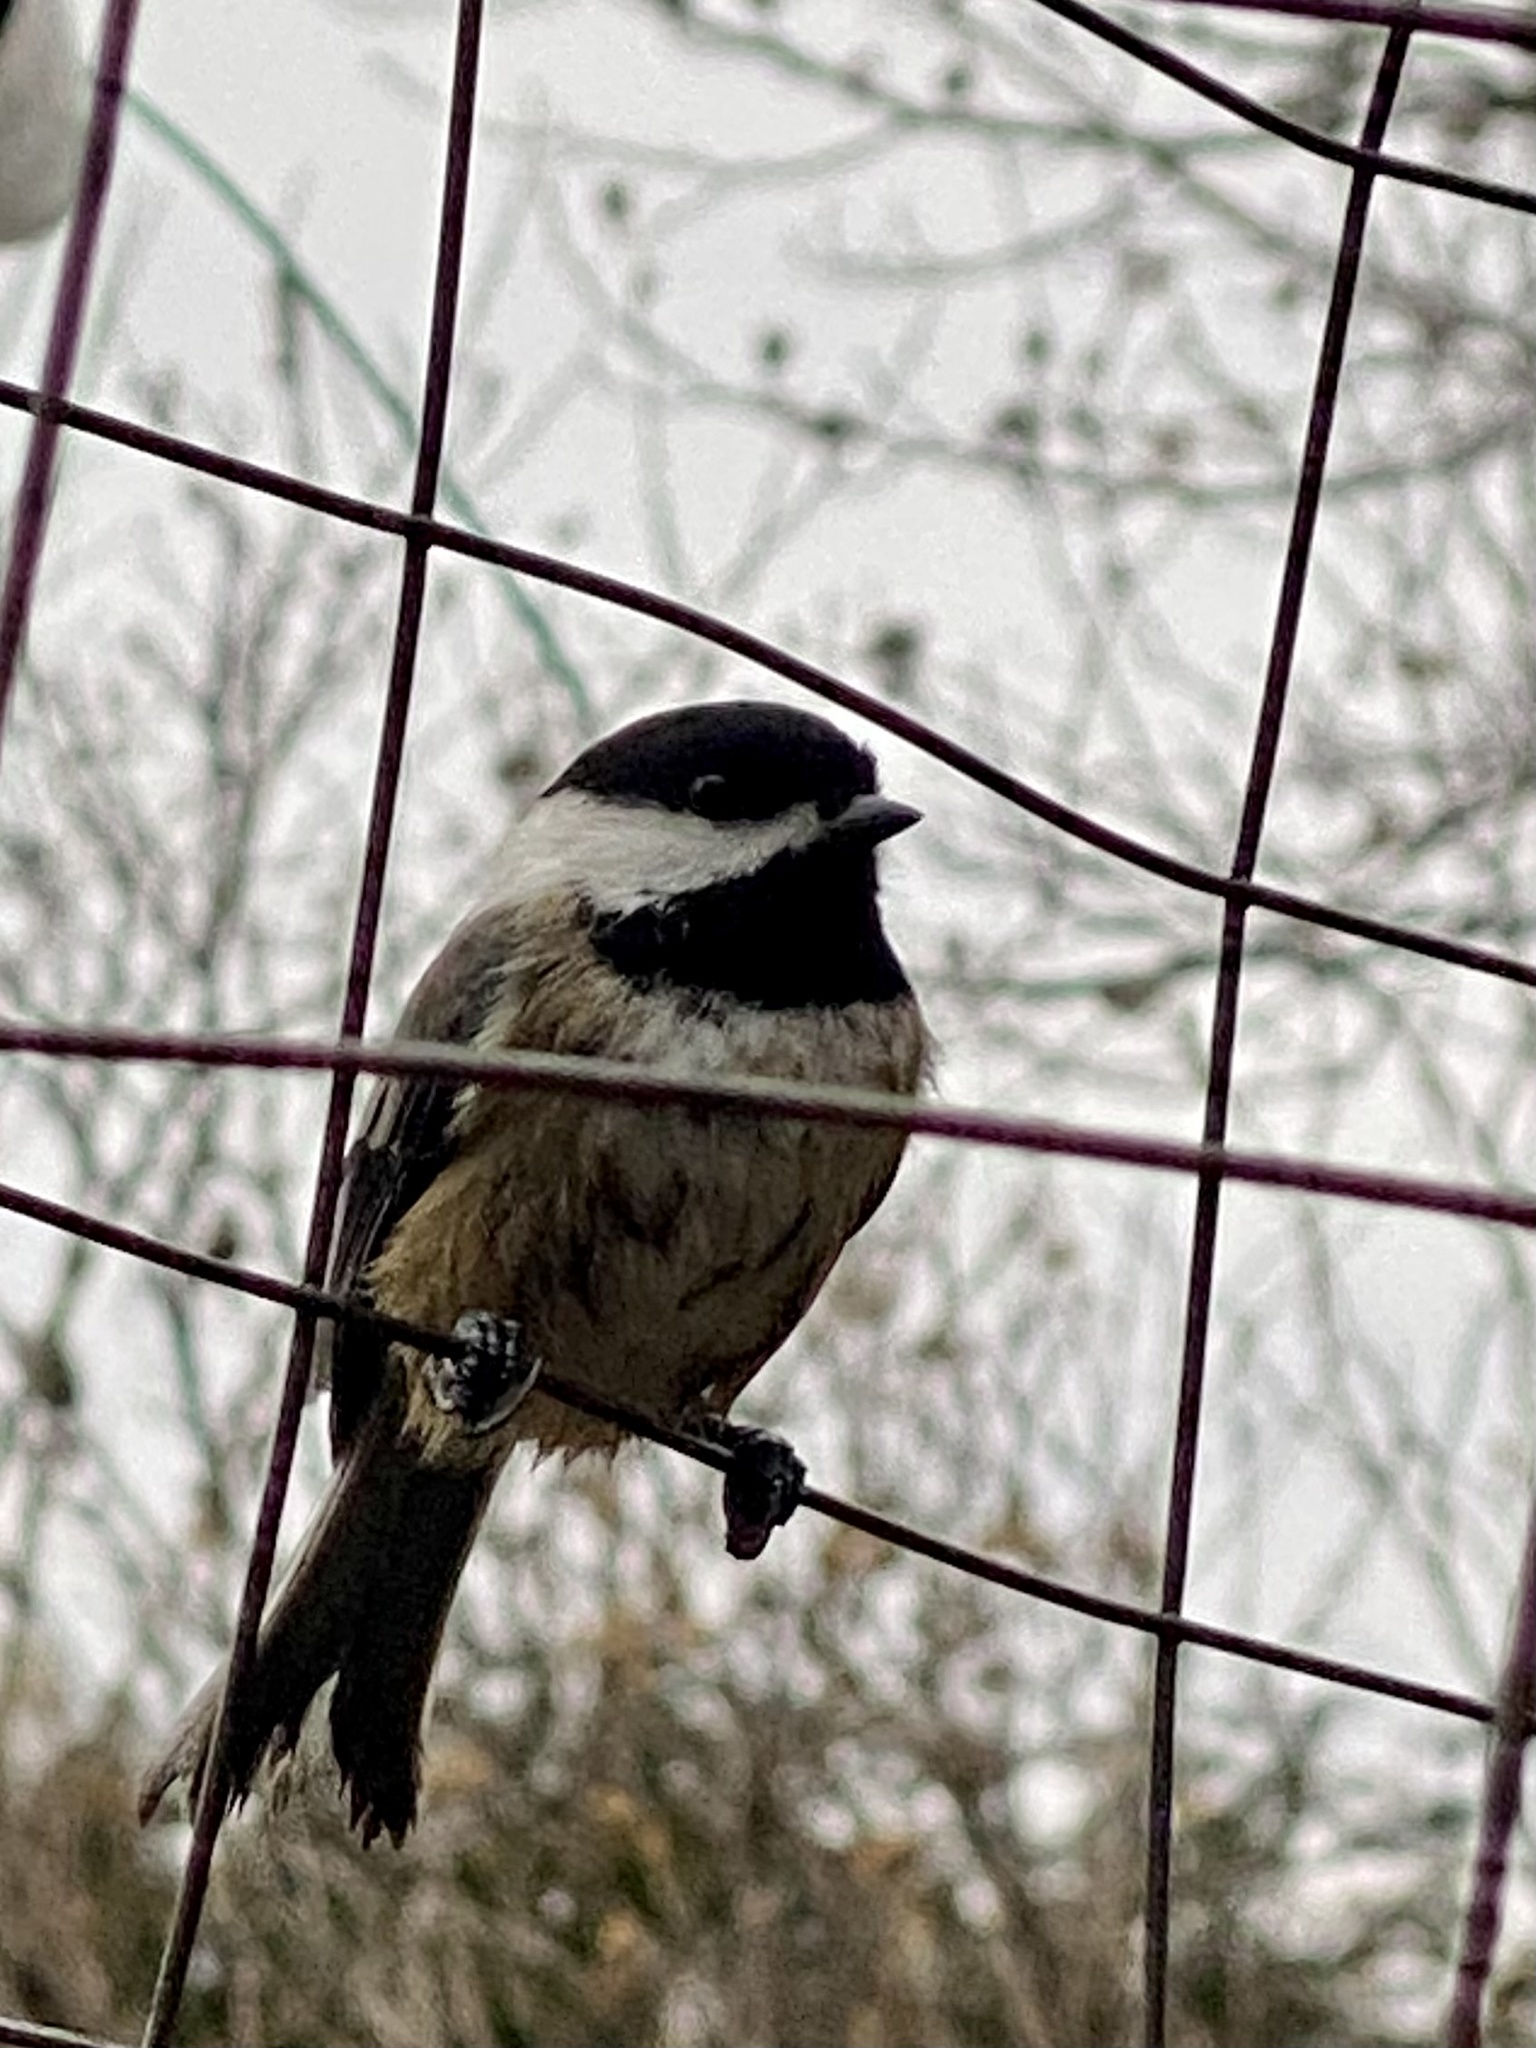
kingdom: Animalia
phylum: Chordata
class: Aves
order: Passeriformes
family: Paridae
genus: Poecile
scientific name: Poecile atricapillus
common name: Black-capped chickadee
